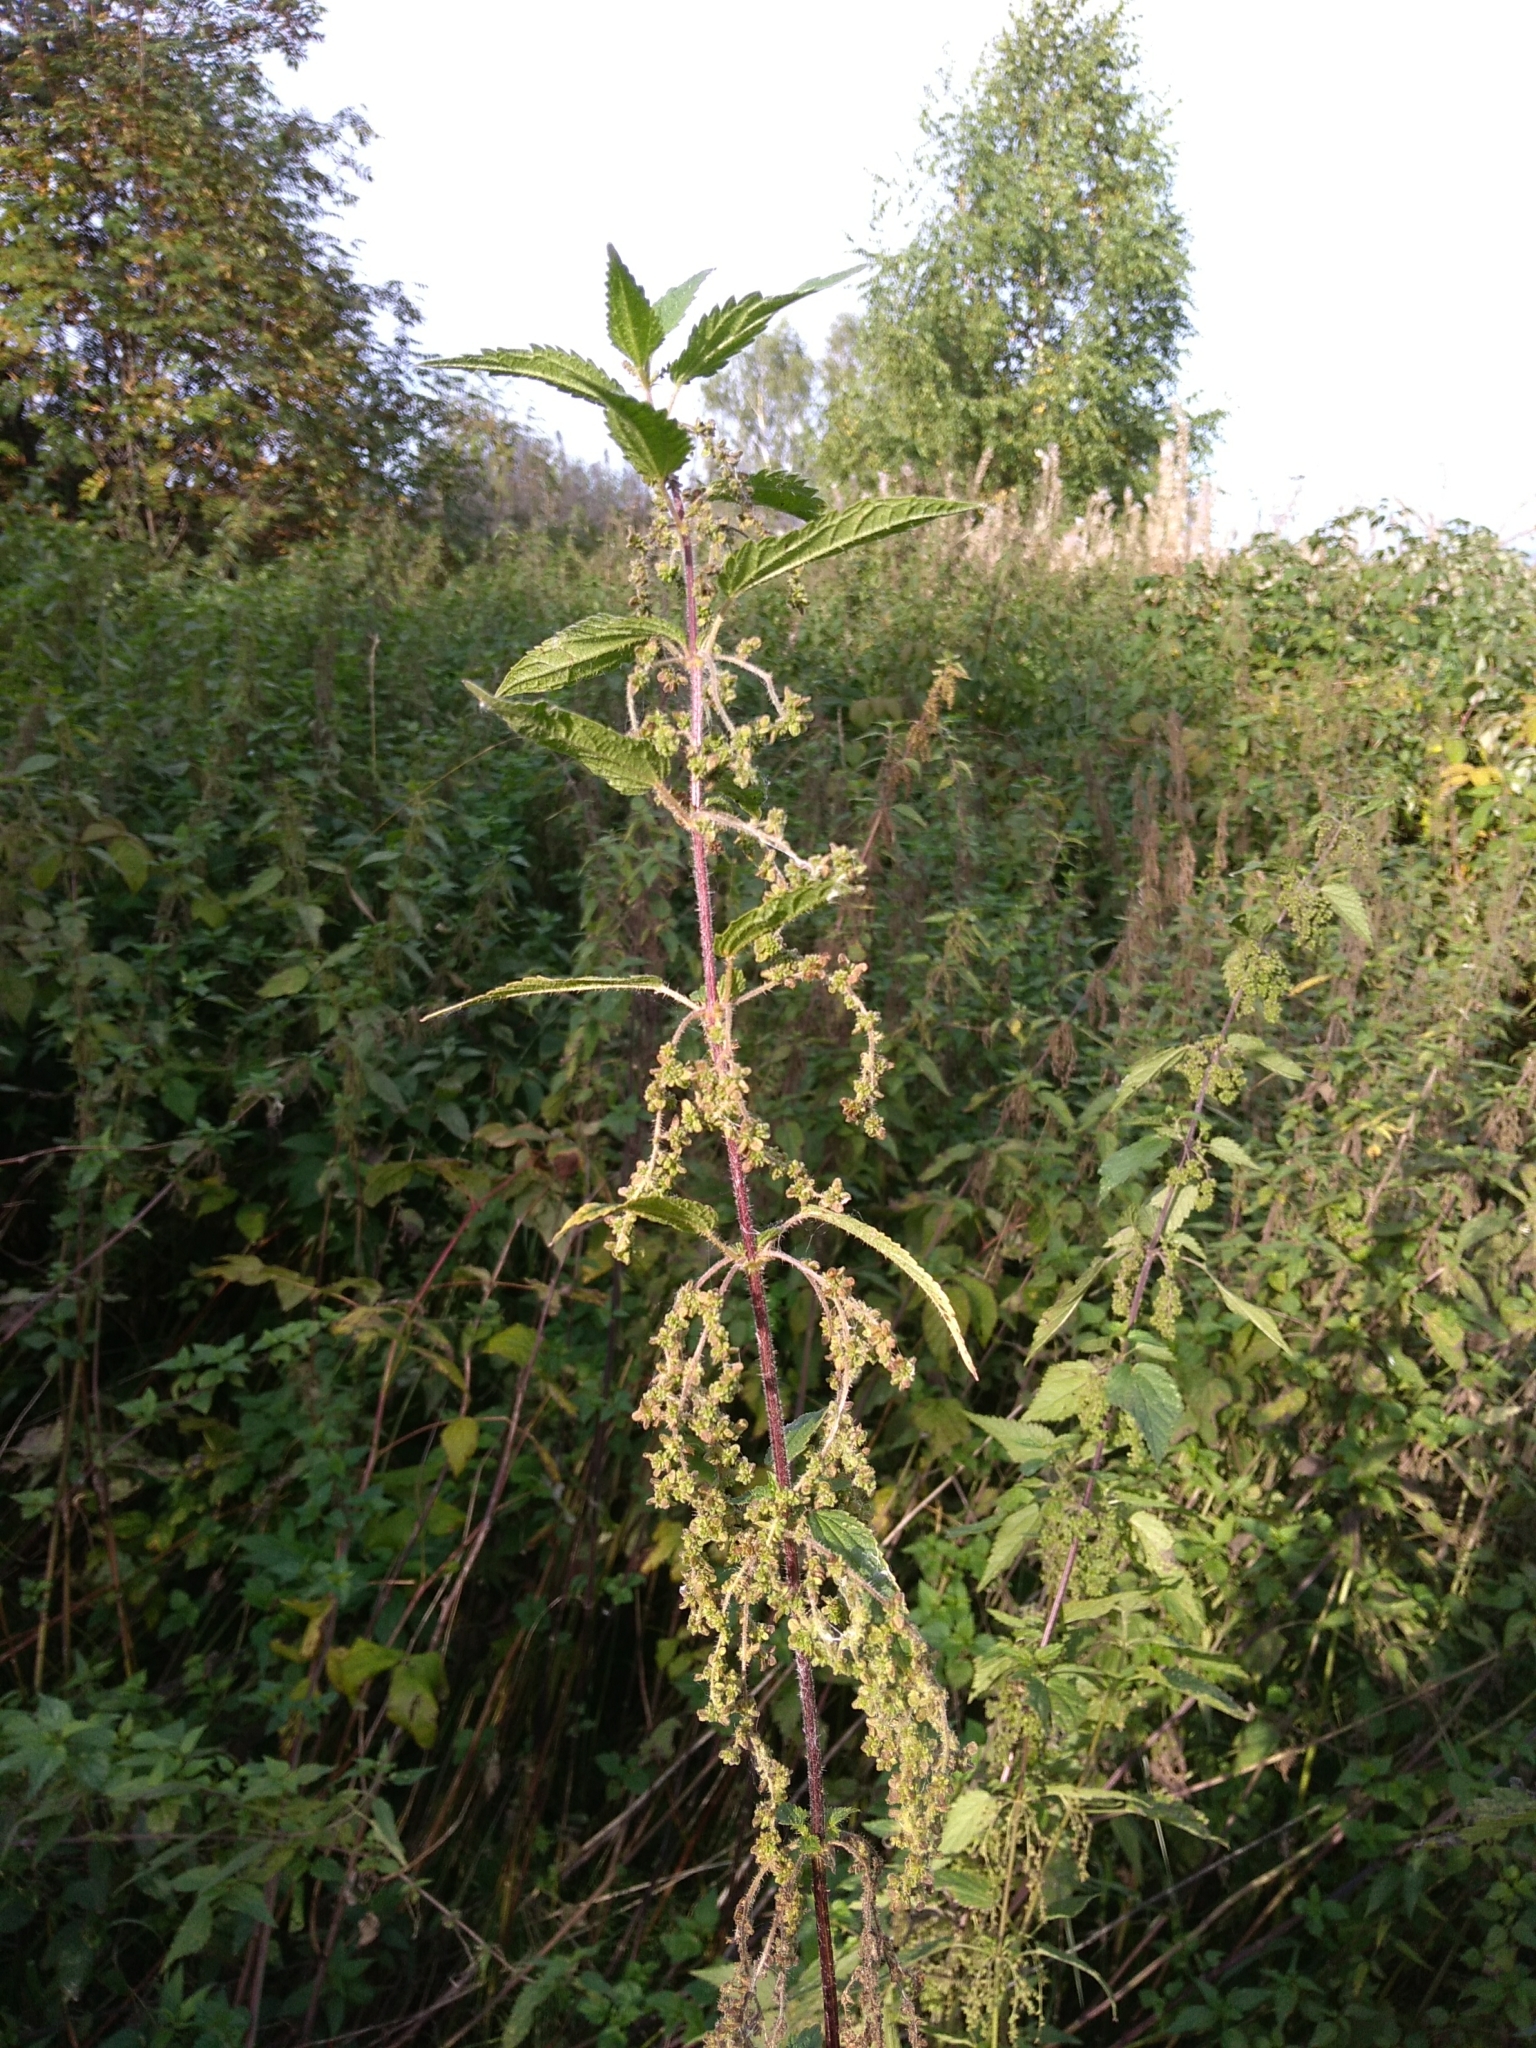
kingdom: Plantae
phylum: Tracheophyta
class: Magnoliopsida
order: Rosales
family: Urticaceae
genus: Urtica
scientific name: Urtica dioica
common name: Common nettle
